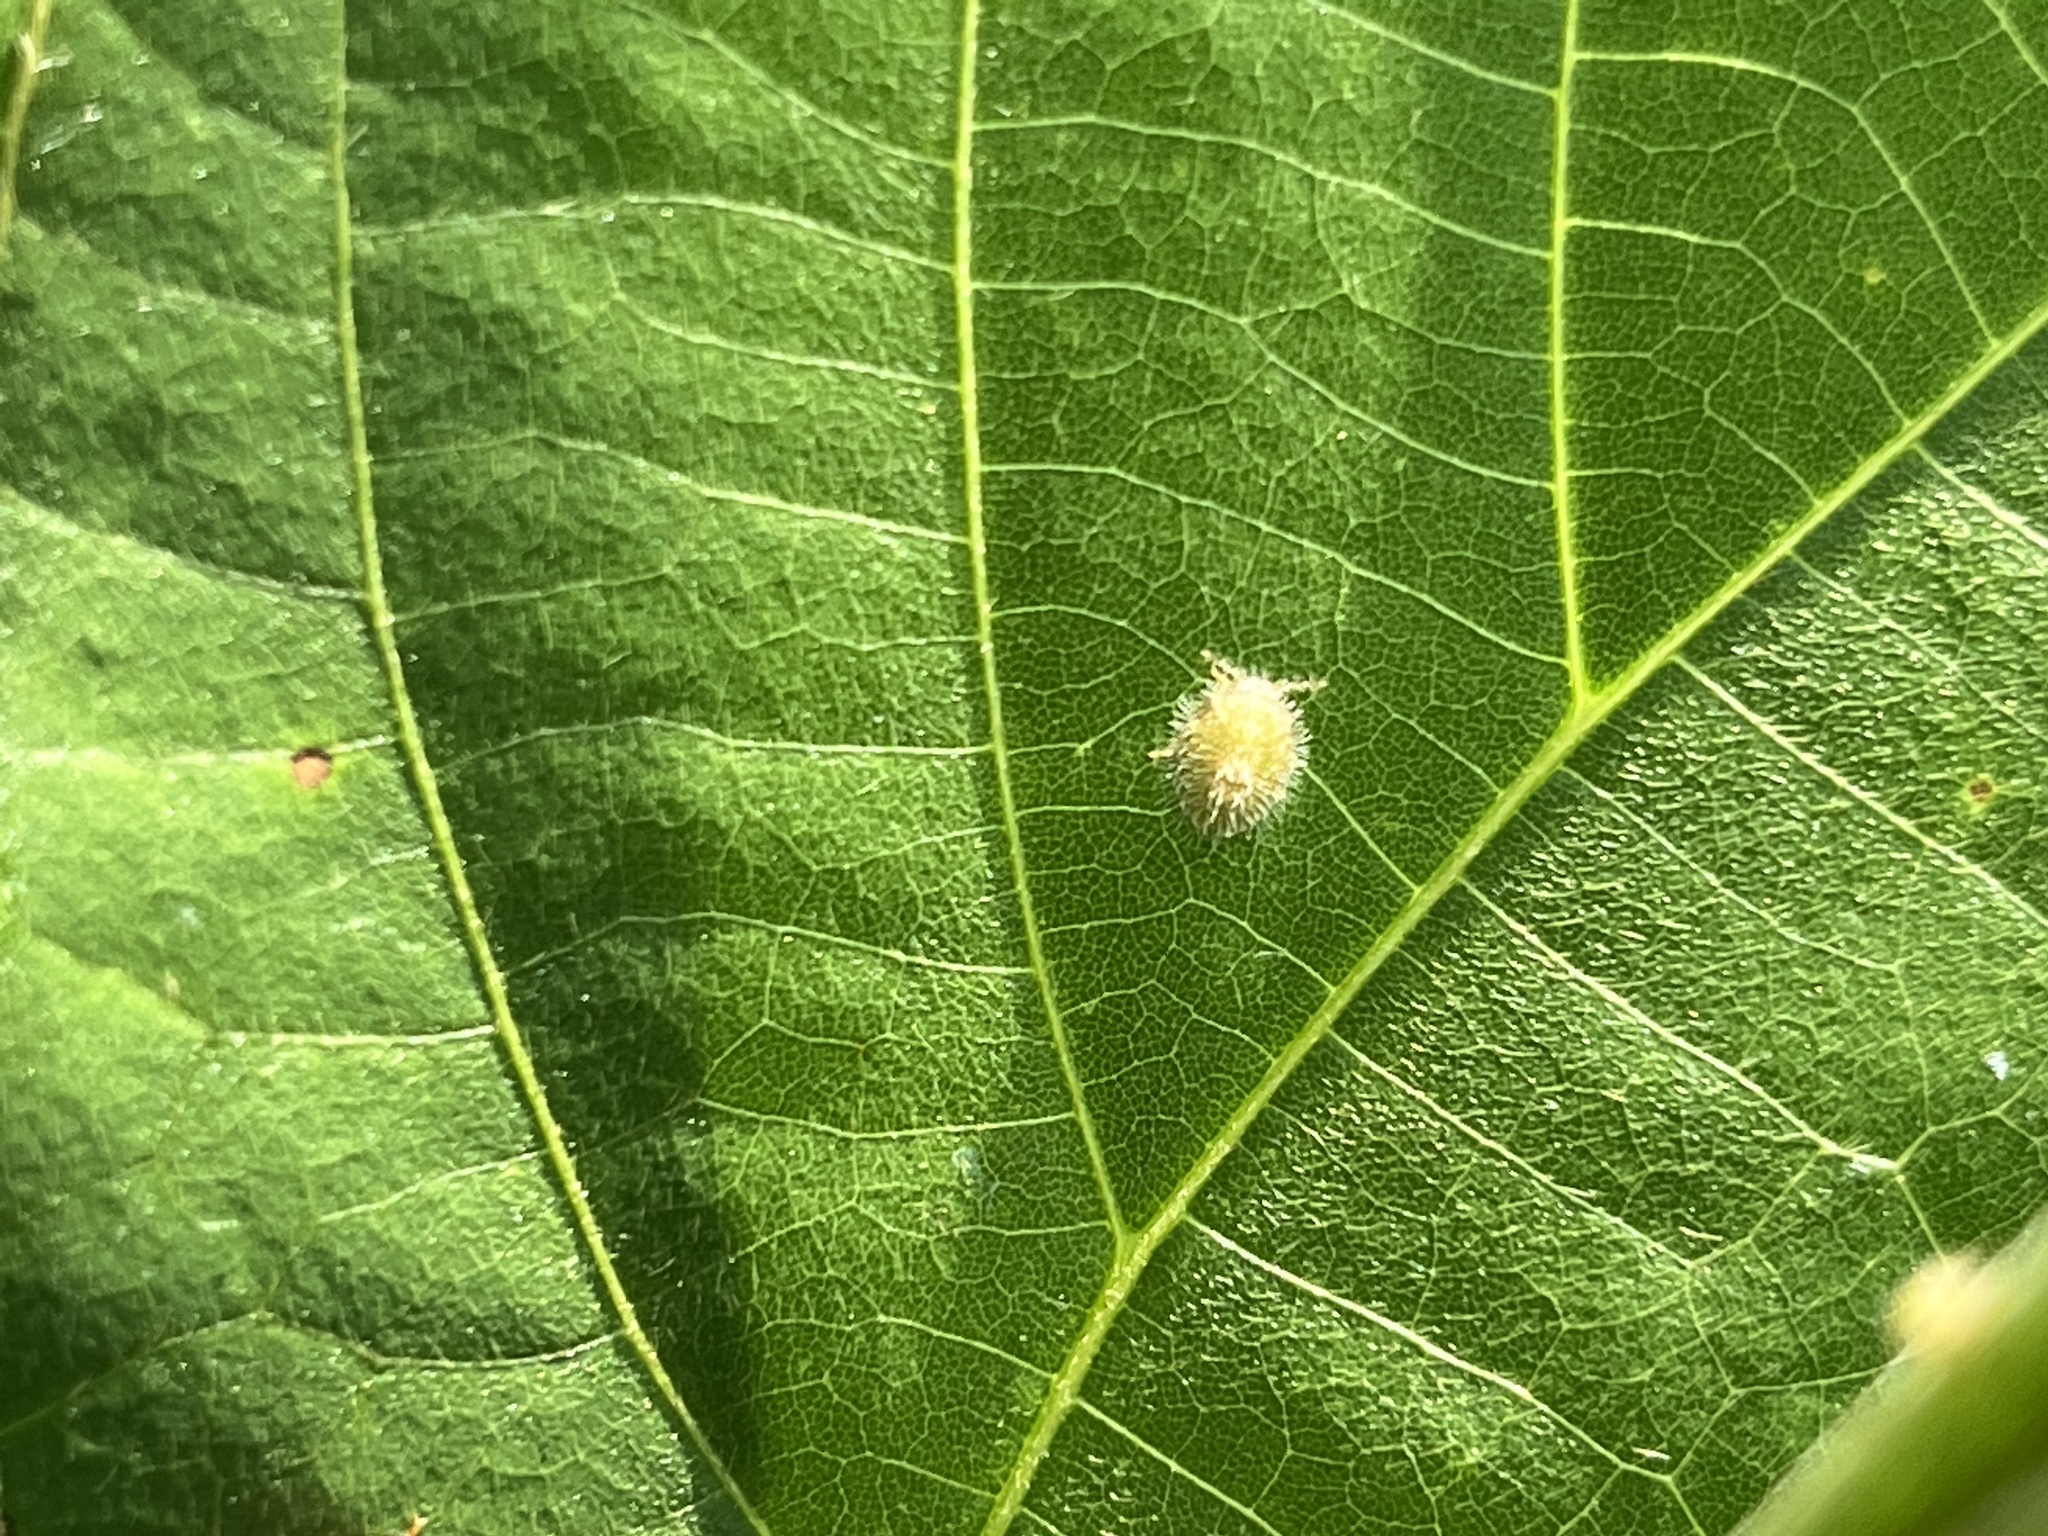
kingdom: Animalia
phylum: Arthropoda
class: Insecta
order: Hemiptera
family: Plataspidae
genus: Megacopta
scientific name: Megacopta cribraria
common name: Bean plataspid
